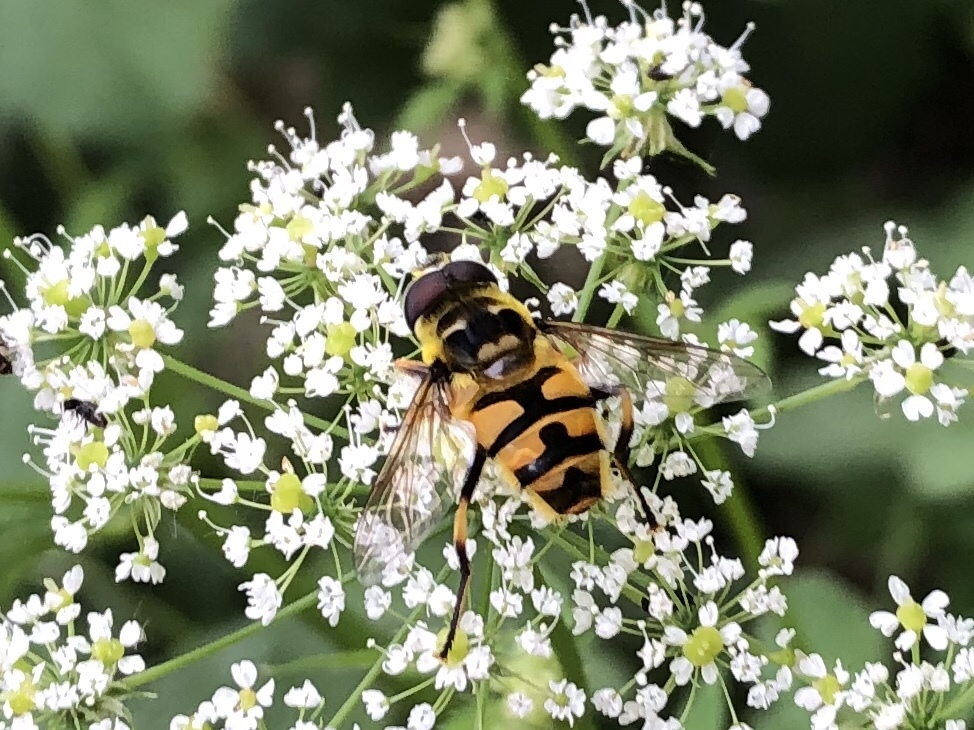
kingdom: Animalia
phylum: Arthropoda
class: Insecta
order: Diptera
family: Syrphidae
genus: Myathropa
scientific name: Myathropa florea
